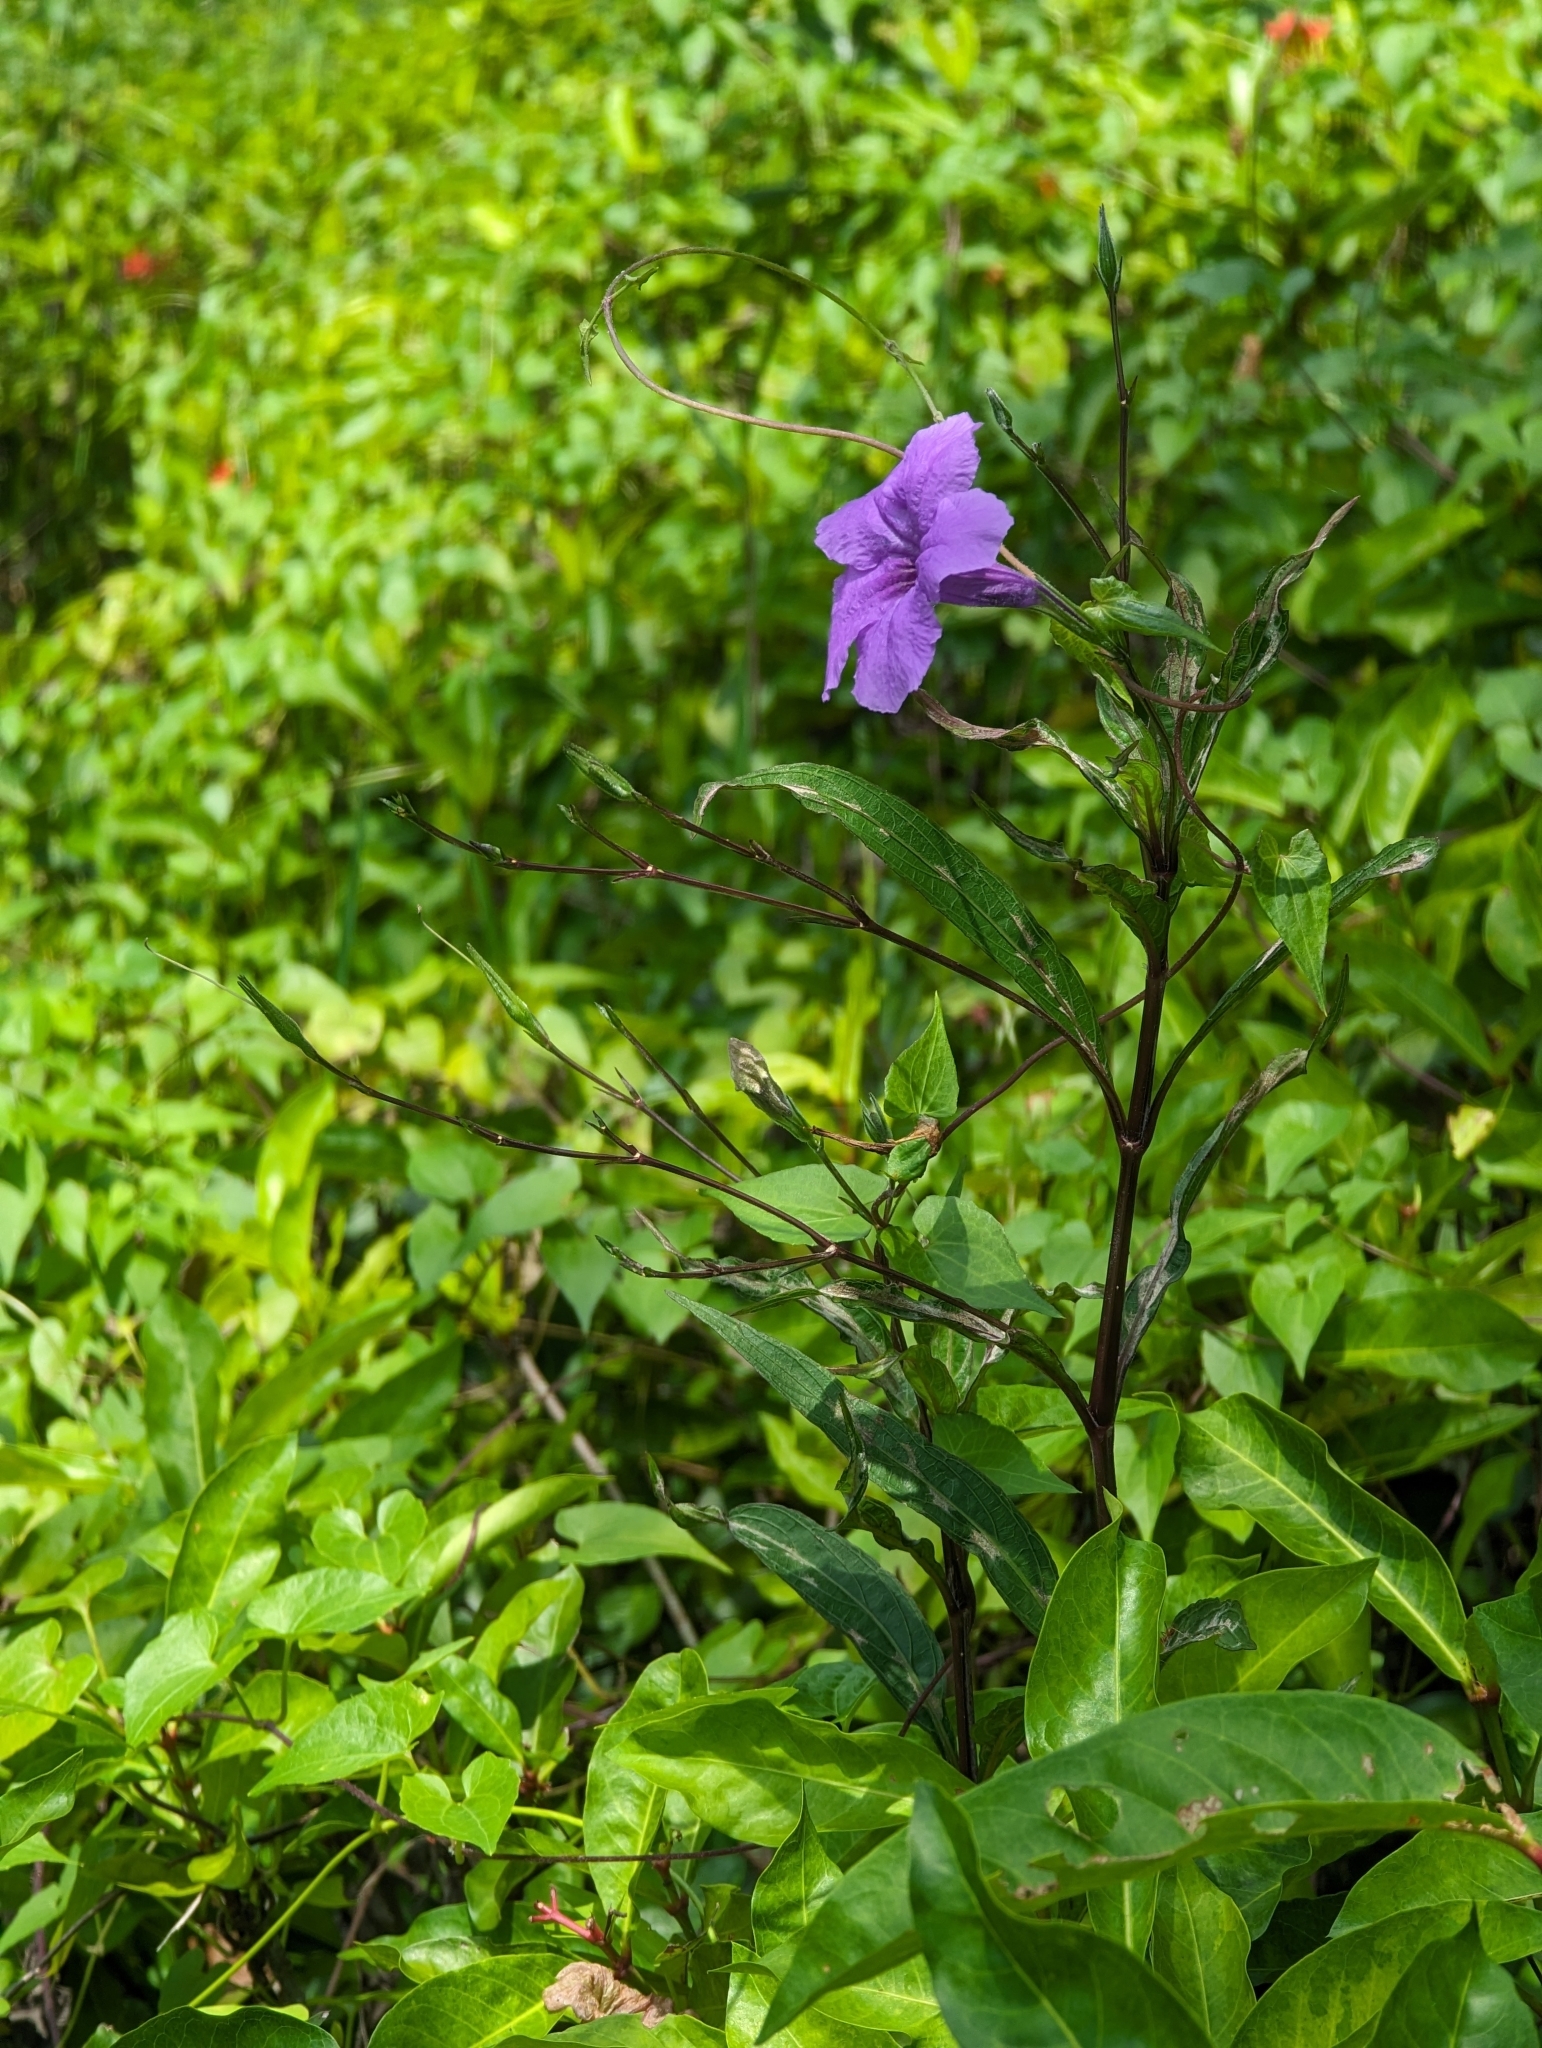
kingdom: Plantae
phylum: Tracheophyta
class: Magnoliopsida
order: Lamiales
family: Acanthaceae
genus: Ruellia
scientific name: Ruellia simplex
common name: Softseed wild petunia
